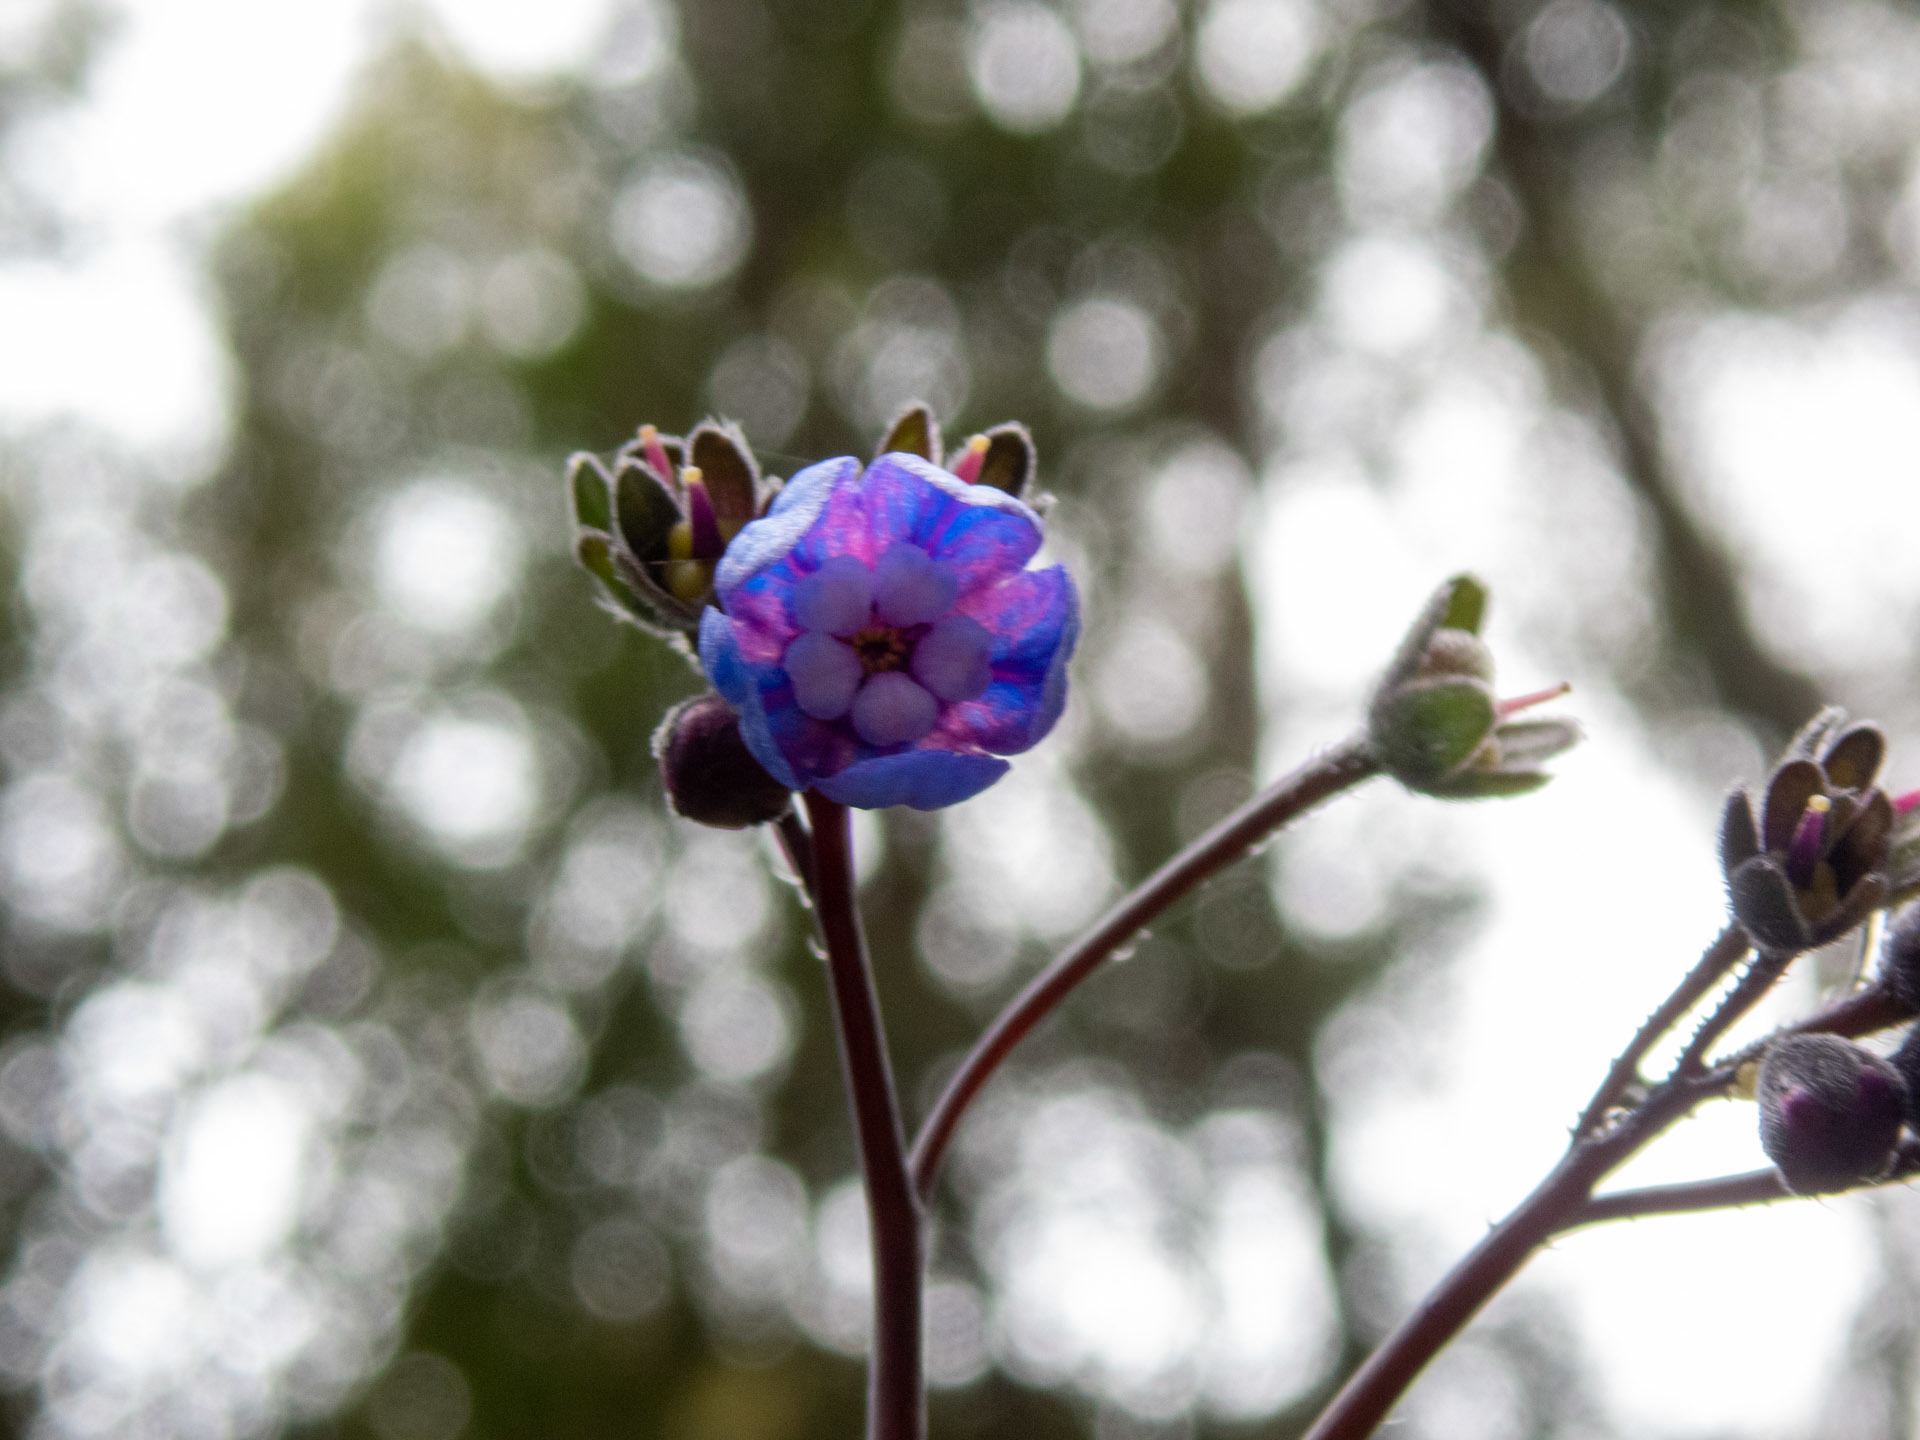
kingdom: Plantae
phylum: Tracheophyta
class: Magnoliopsida
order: Boraginales
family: Boraginaceae
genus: Adelinia
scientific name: Adelinia grande
